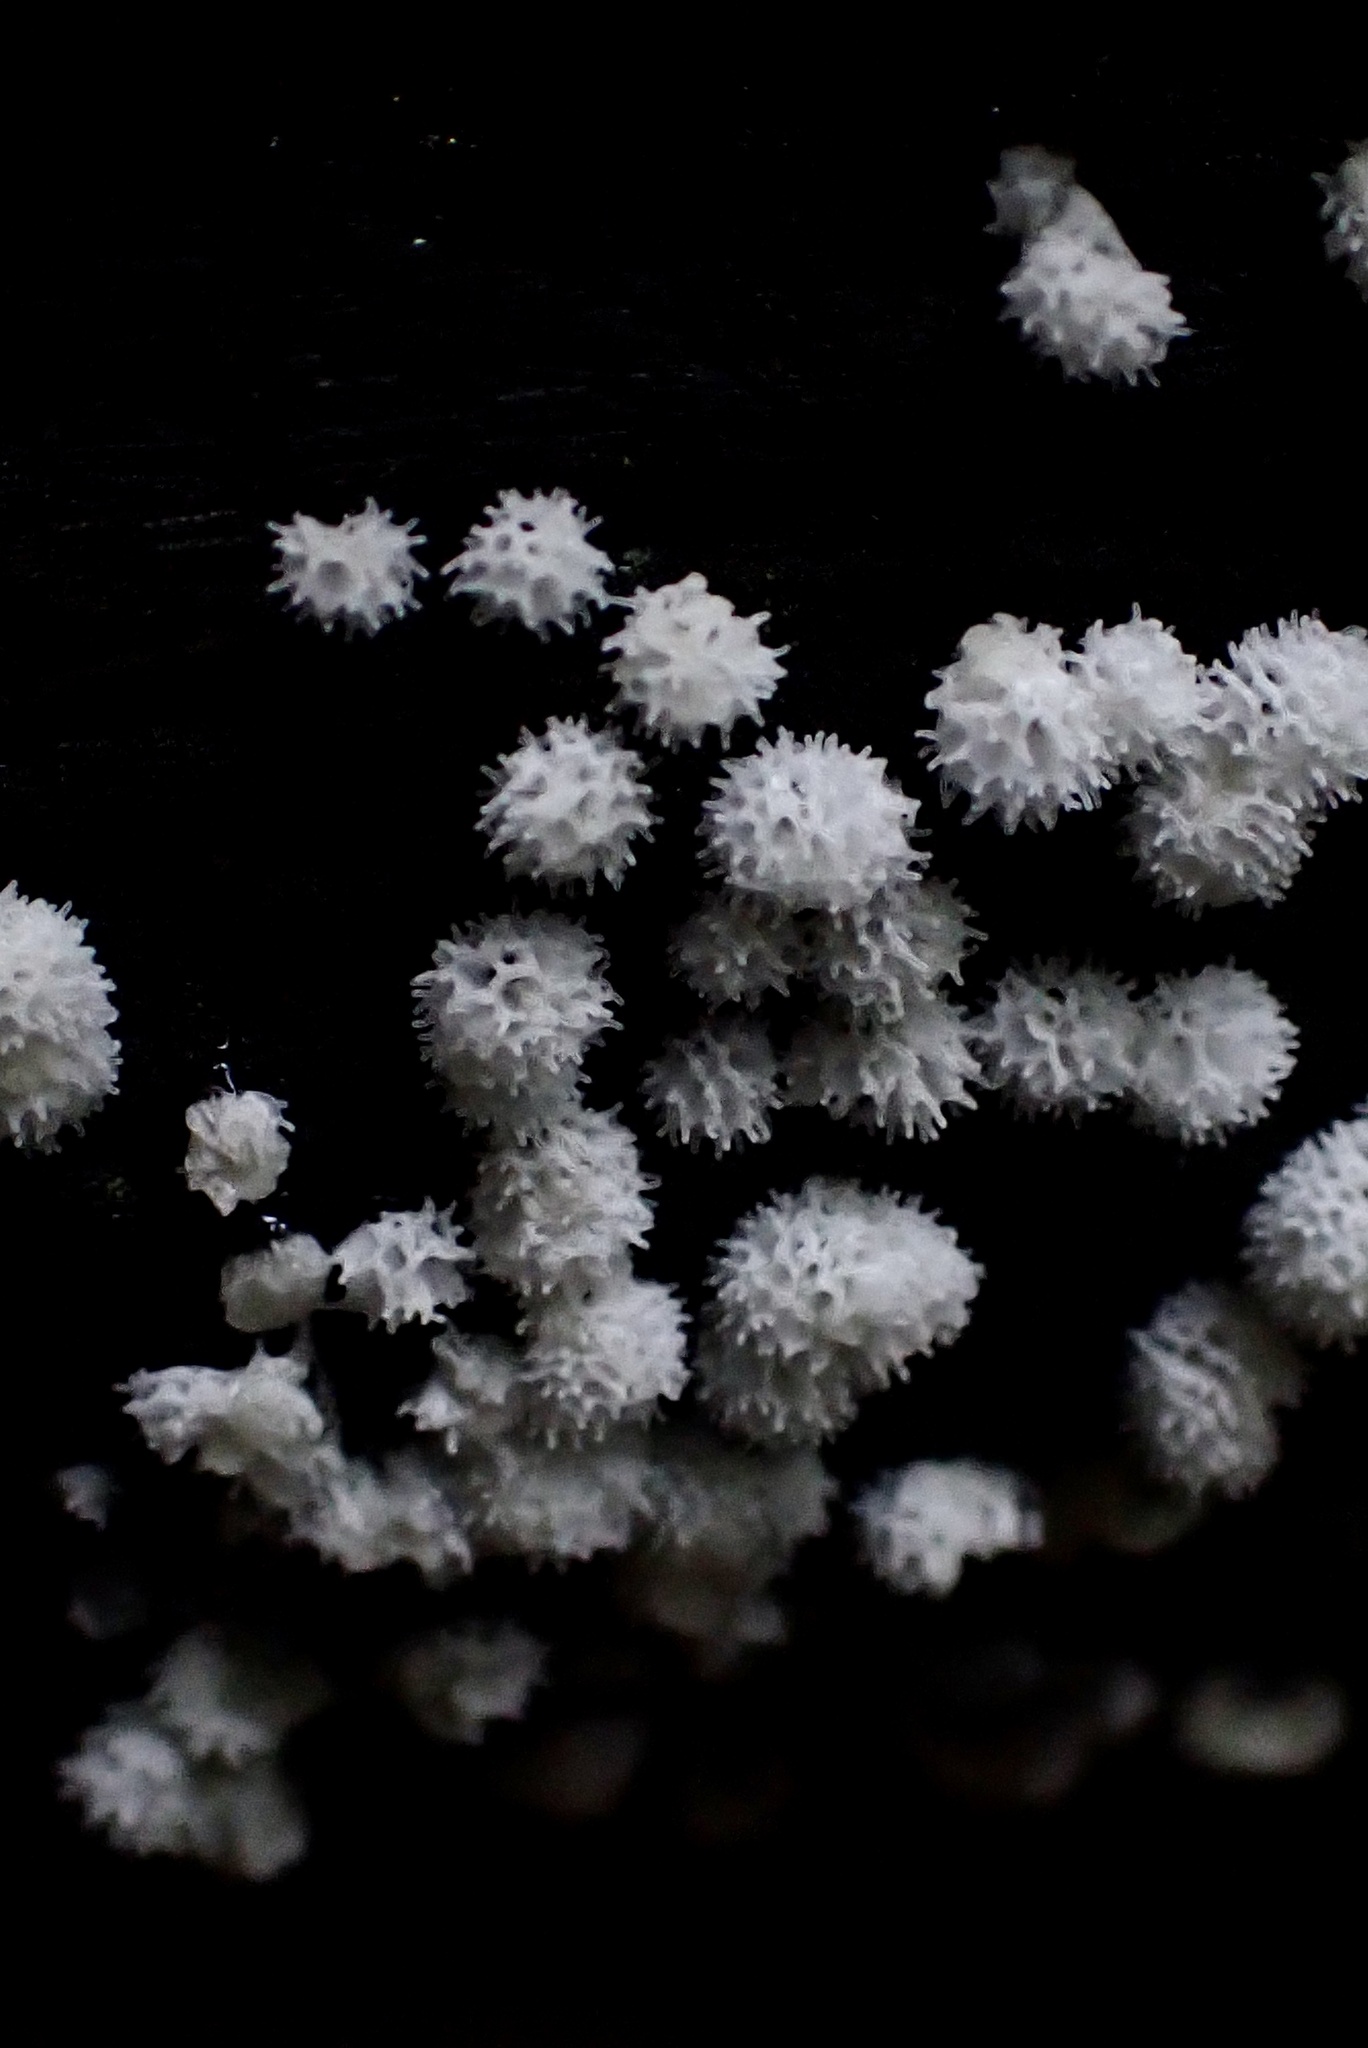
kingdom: Protozoa
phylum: Mycetozoa
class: Protosteliomycetes
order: Ceratiomyxales
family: Ceratiomyxaceae
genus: Ceratiomyxa
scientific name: Ceratiomyxa fruticulosa
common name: Honeycomb coral slime mold
